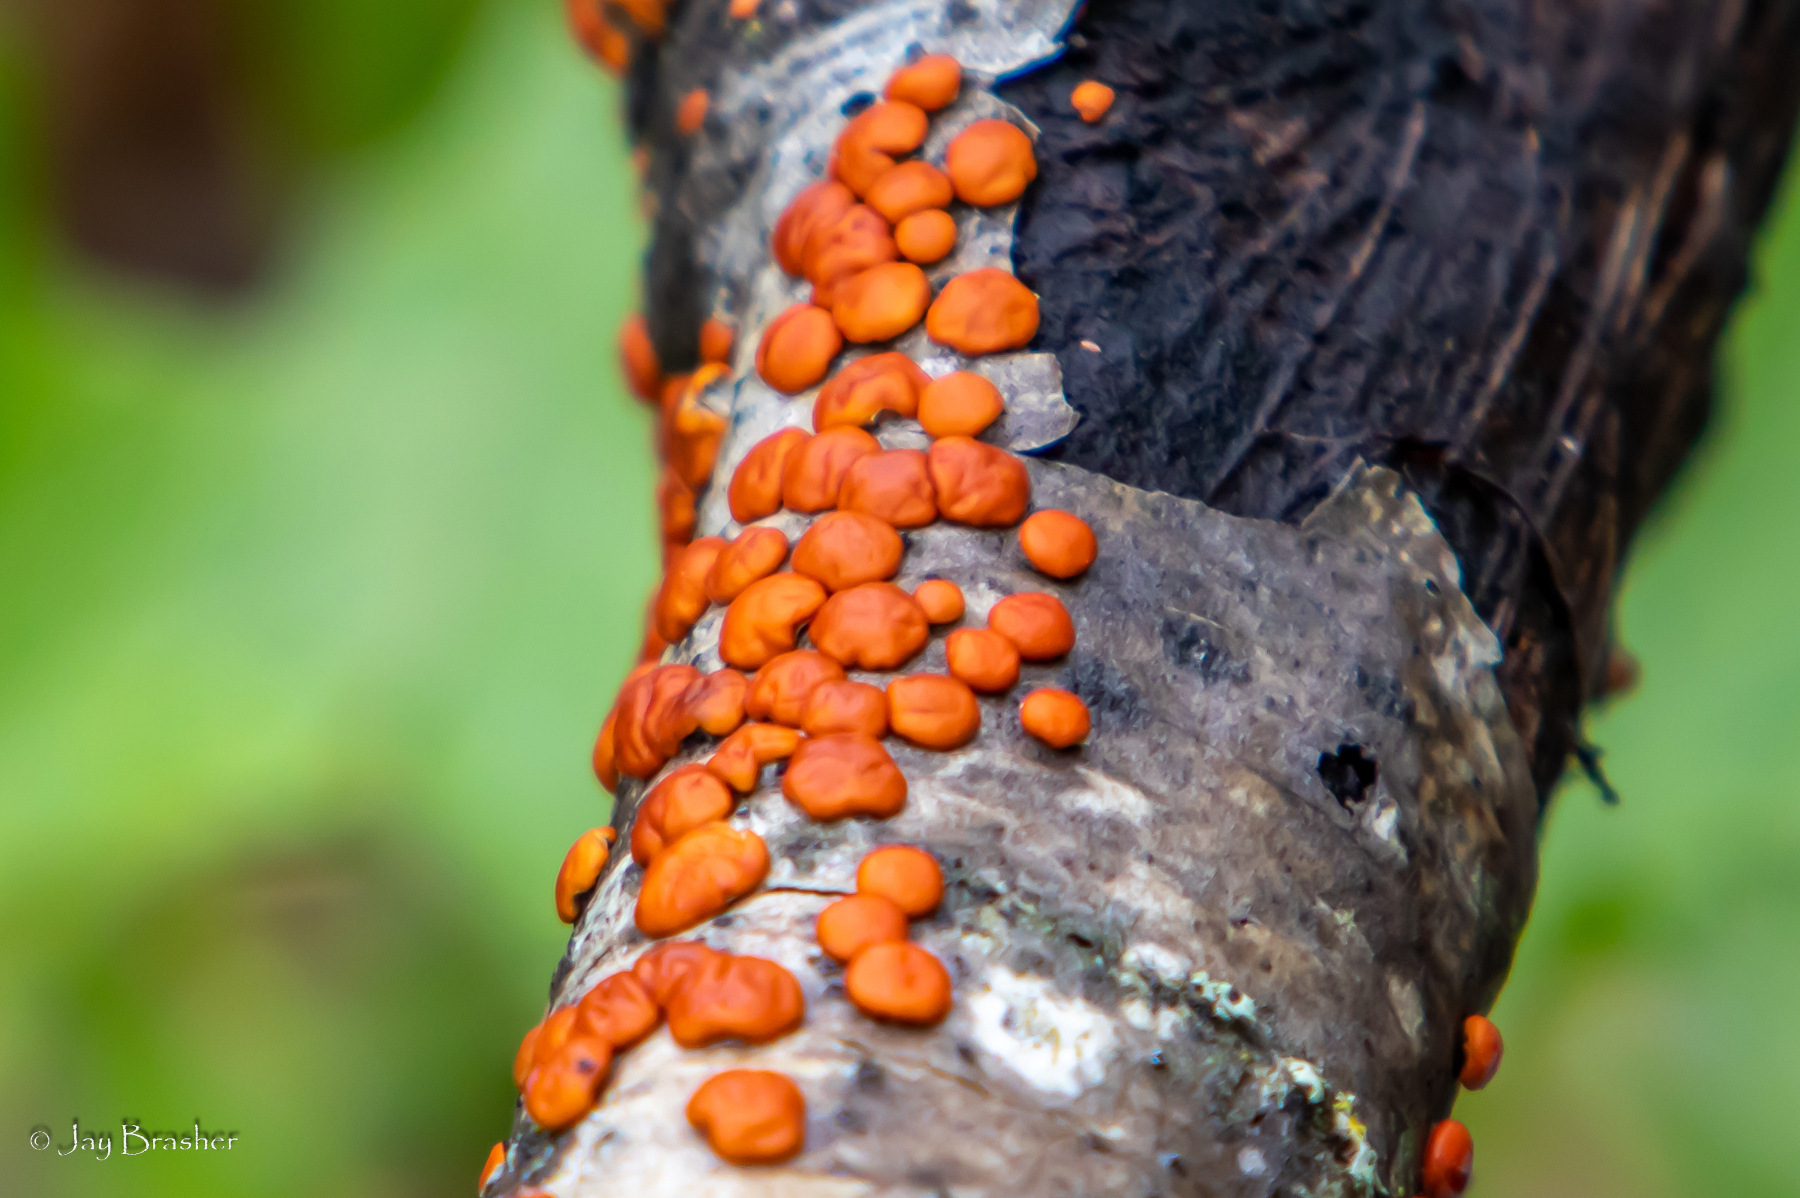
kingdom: Fungi
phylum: Basidiomycota
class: Agaricomycetes
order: Russulales
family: Peniophoraceae
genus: Peniophora
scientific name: Peniophora rufa
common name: Red tree brain fungus
